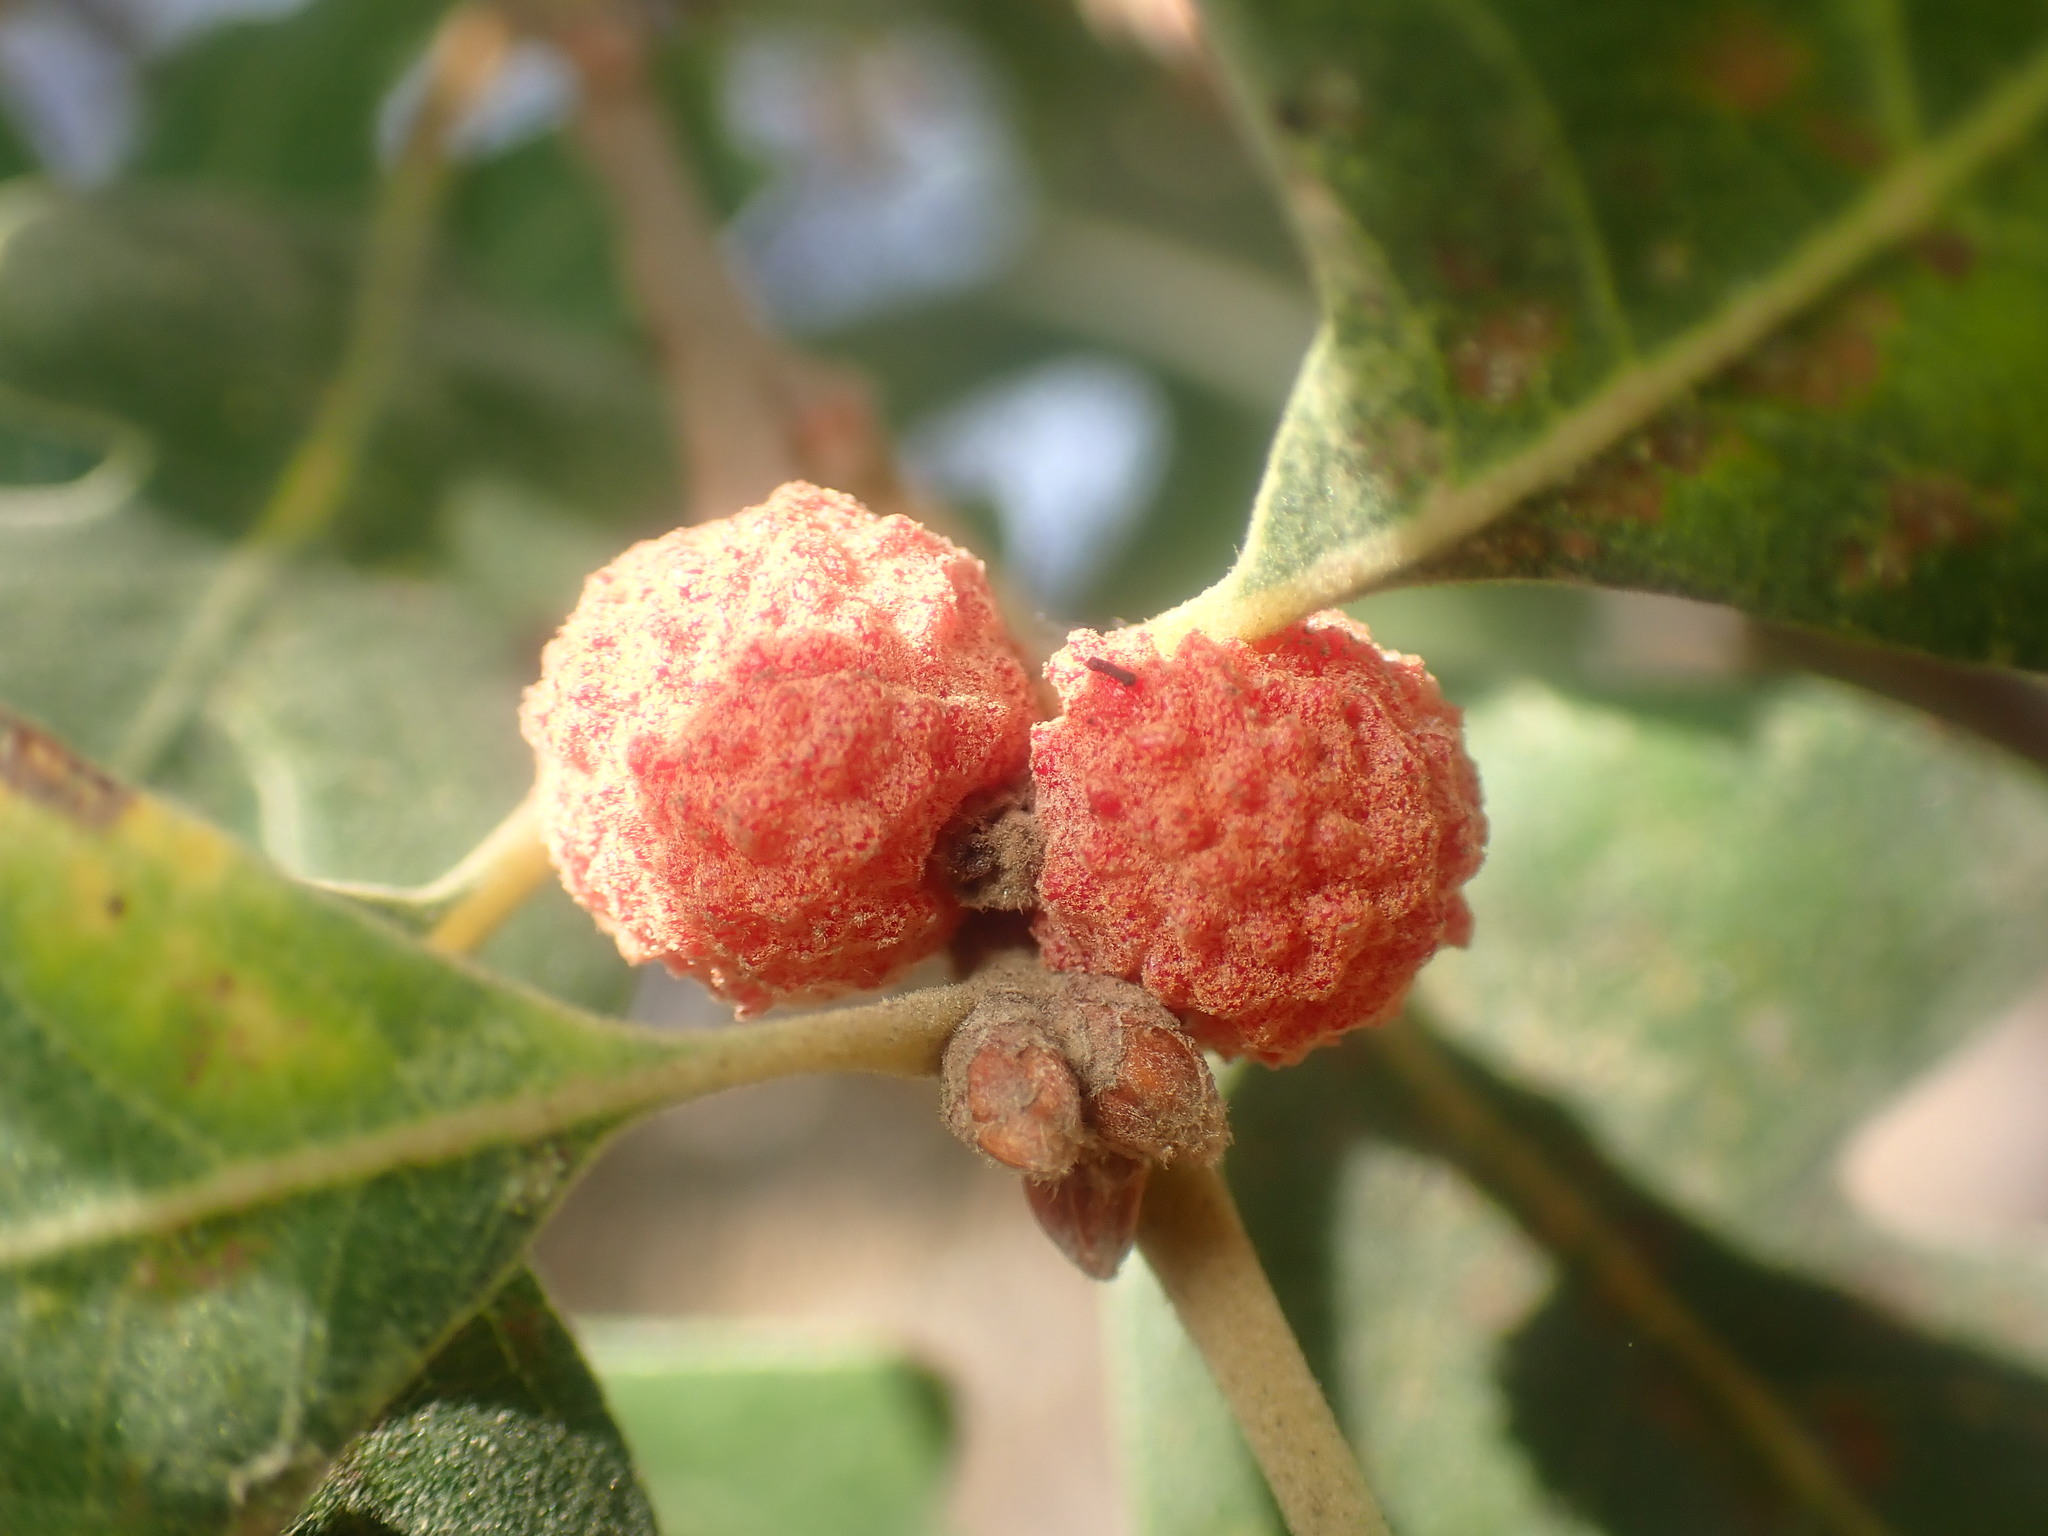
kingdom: Animalia
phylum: Arthropoda
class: Insecta
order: Hymenoptera
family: Cynipidae
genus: Cynips
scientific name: Cynips conspicua
